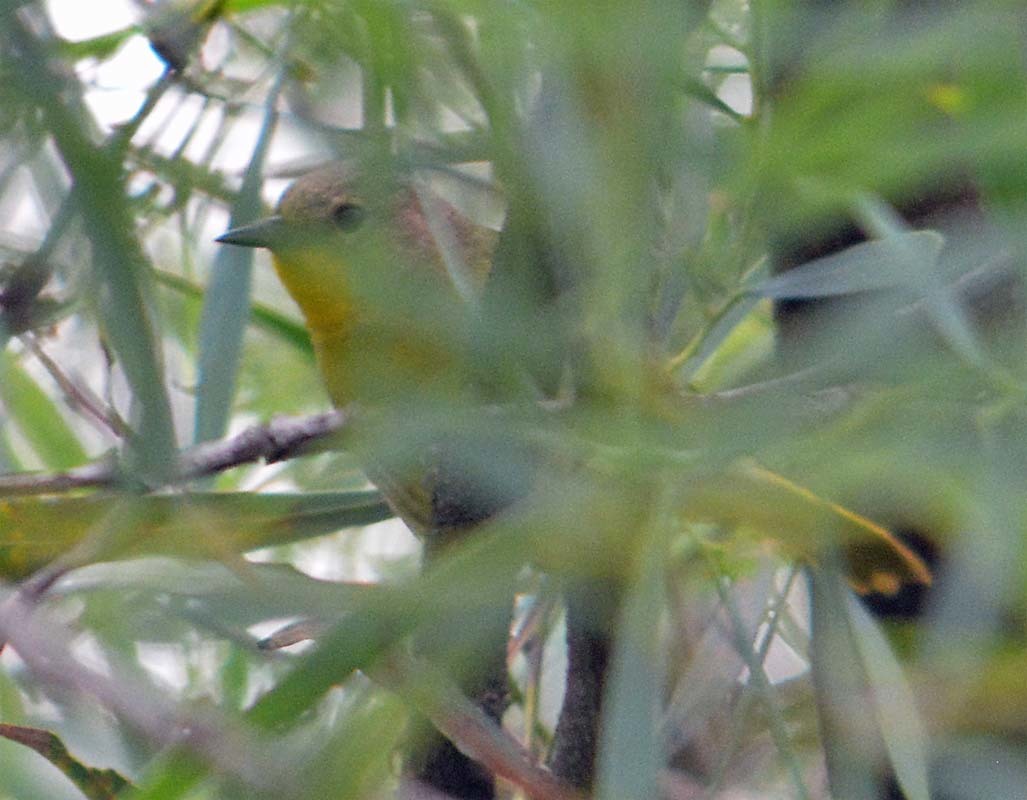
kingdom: Animalia
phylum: Chordata
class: Aves
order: Passeriformes
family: Parulidae
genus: Geothlypis
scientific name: Geothlypis trichas
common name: Common yellowthroat
